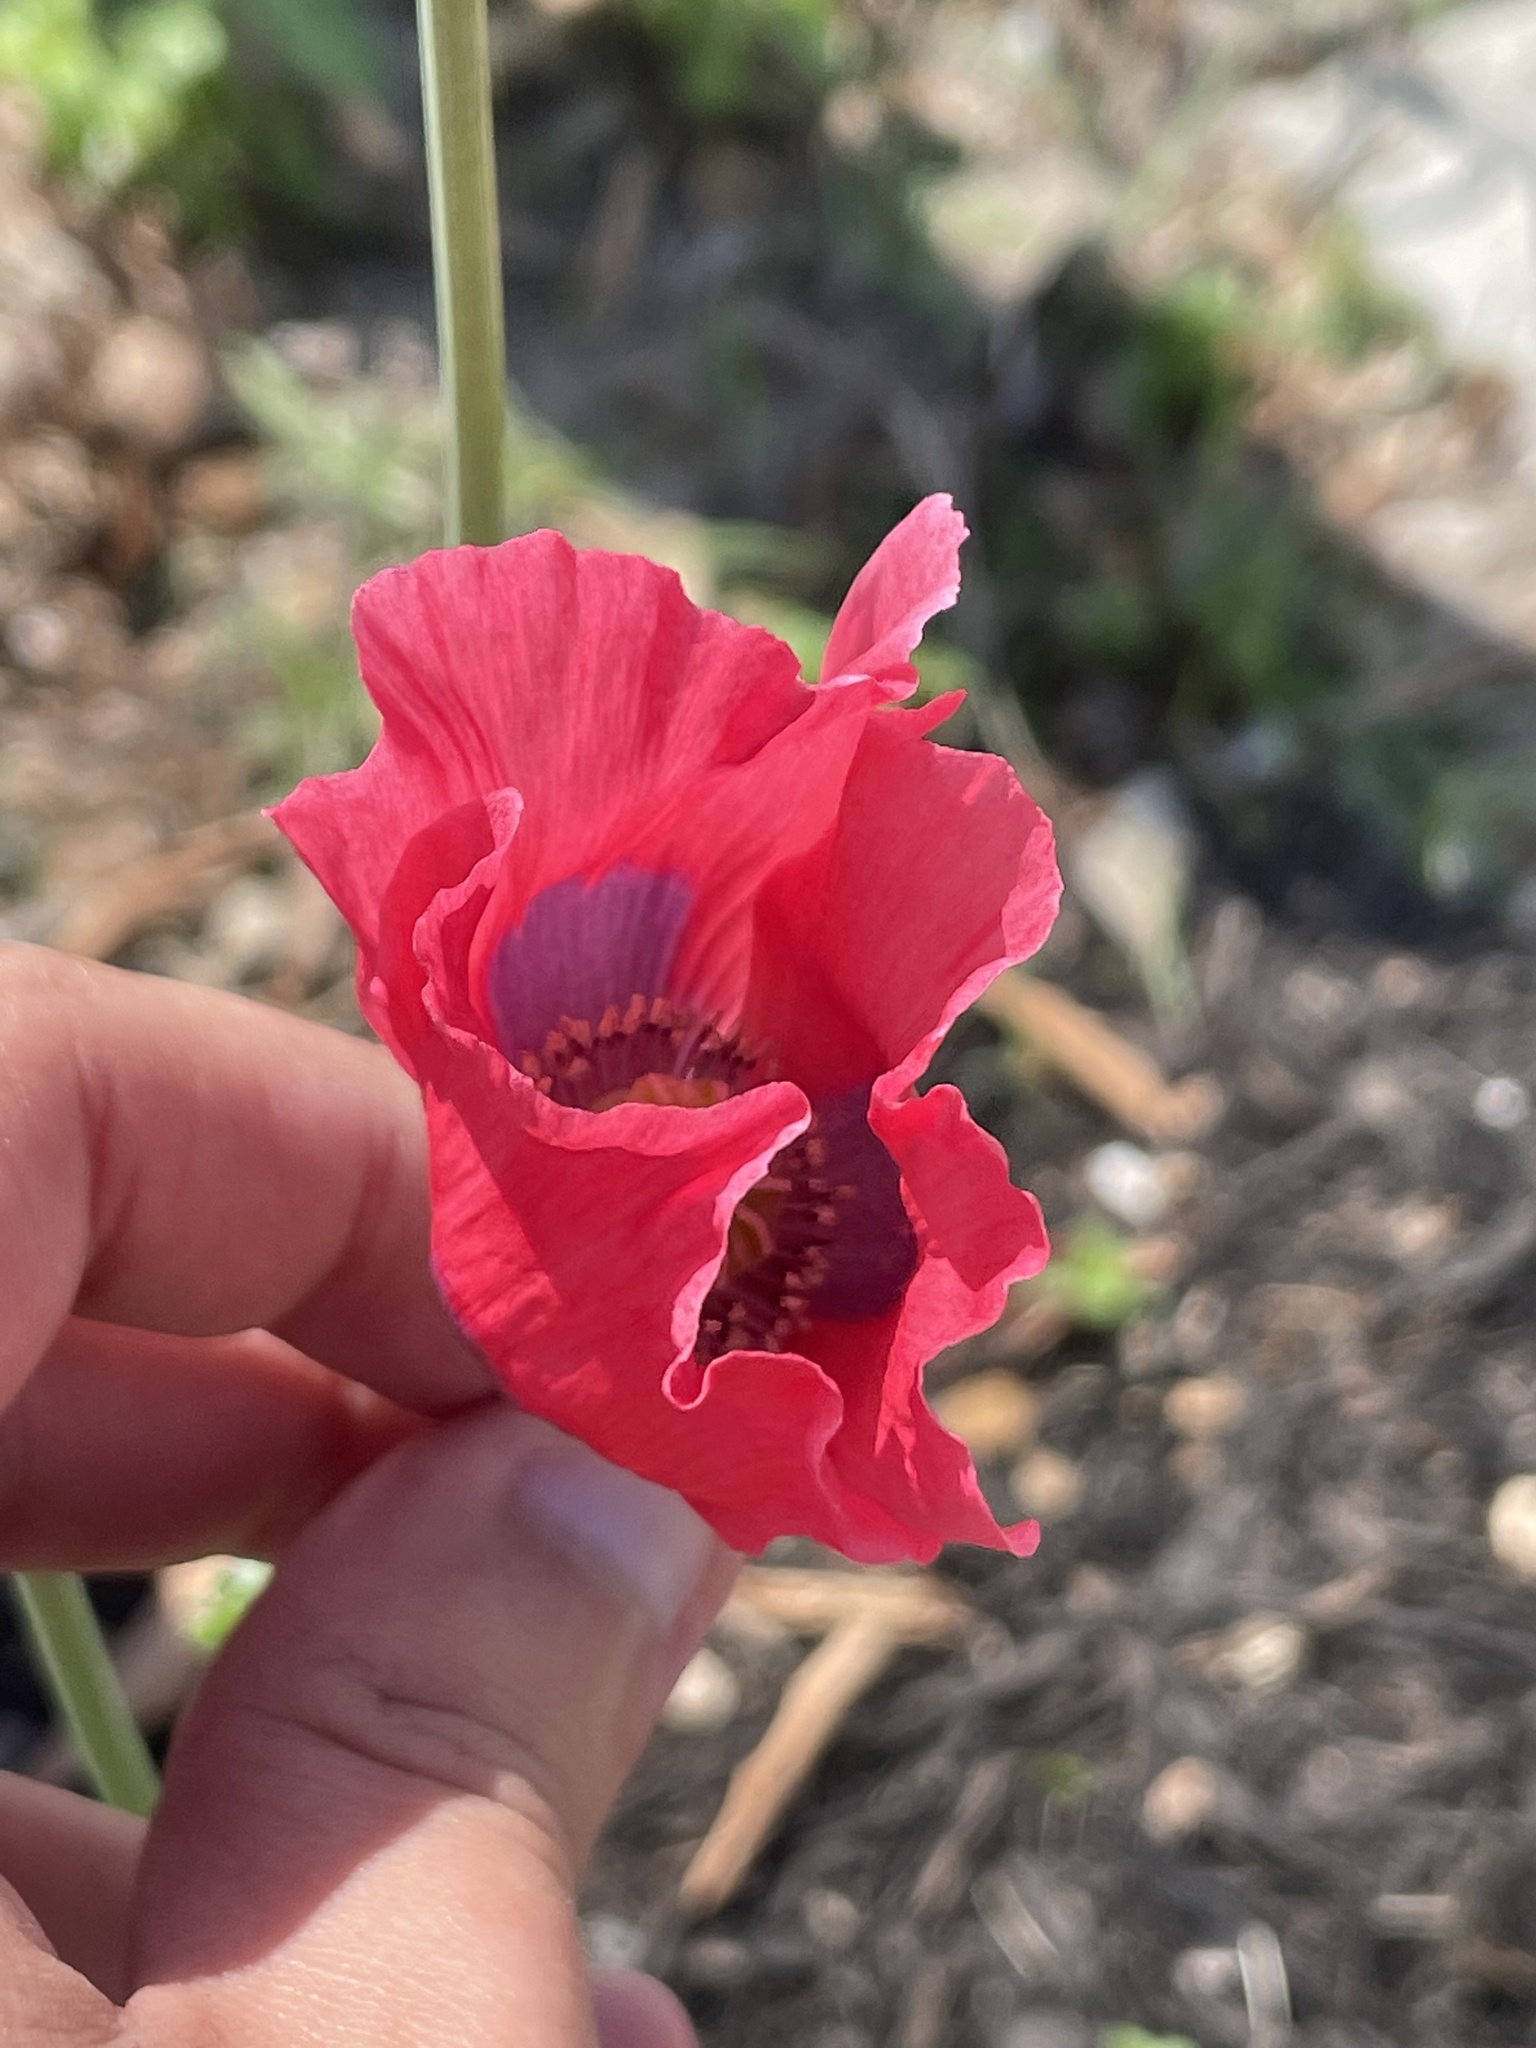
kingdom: Plantae
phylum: Tracheophyta
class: Magnoliopsida
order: Ranunculales
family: Papaveraceae
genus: Papaver
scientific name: Papaver somniferum
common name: Opium poppy
